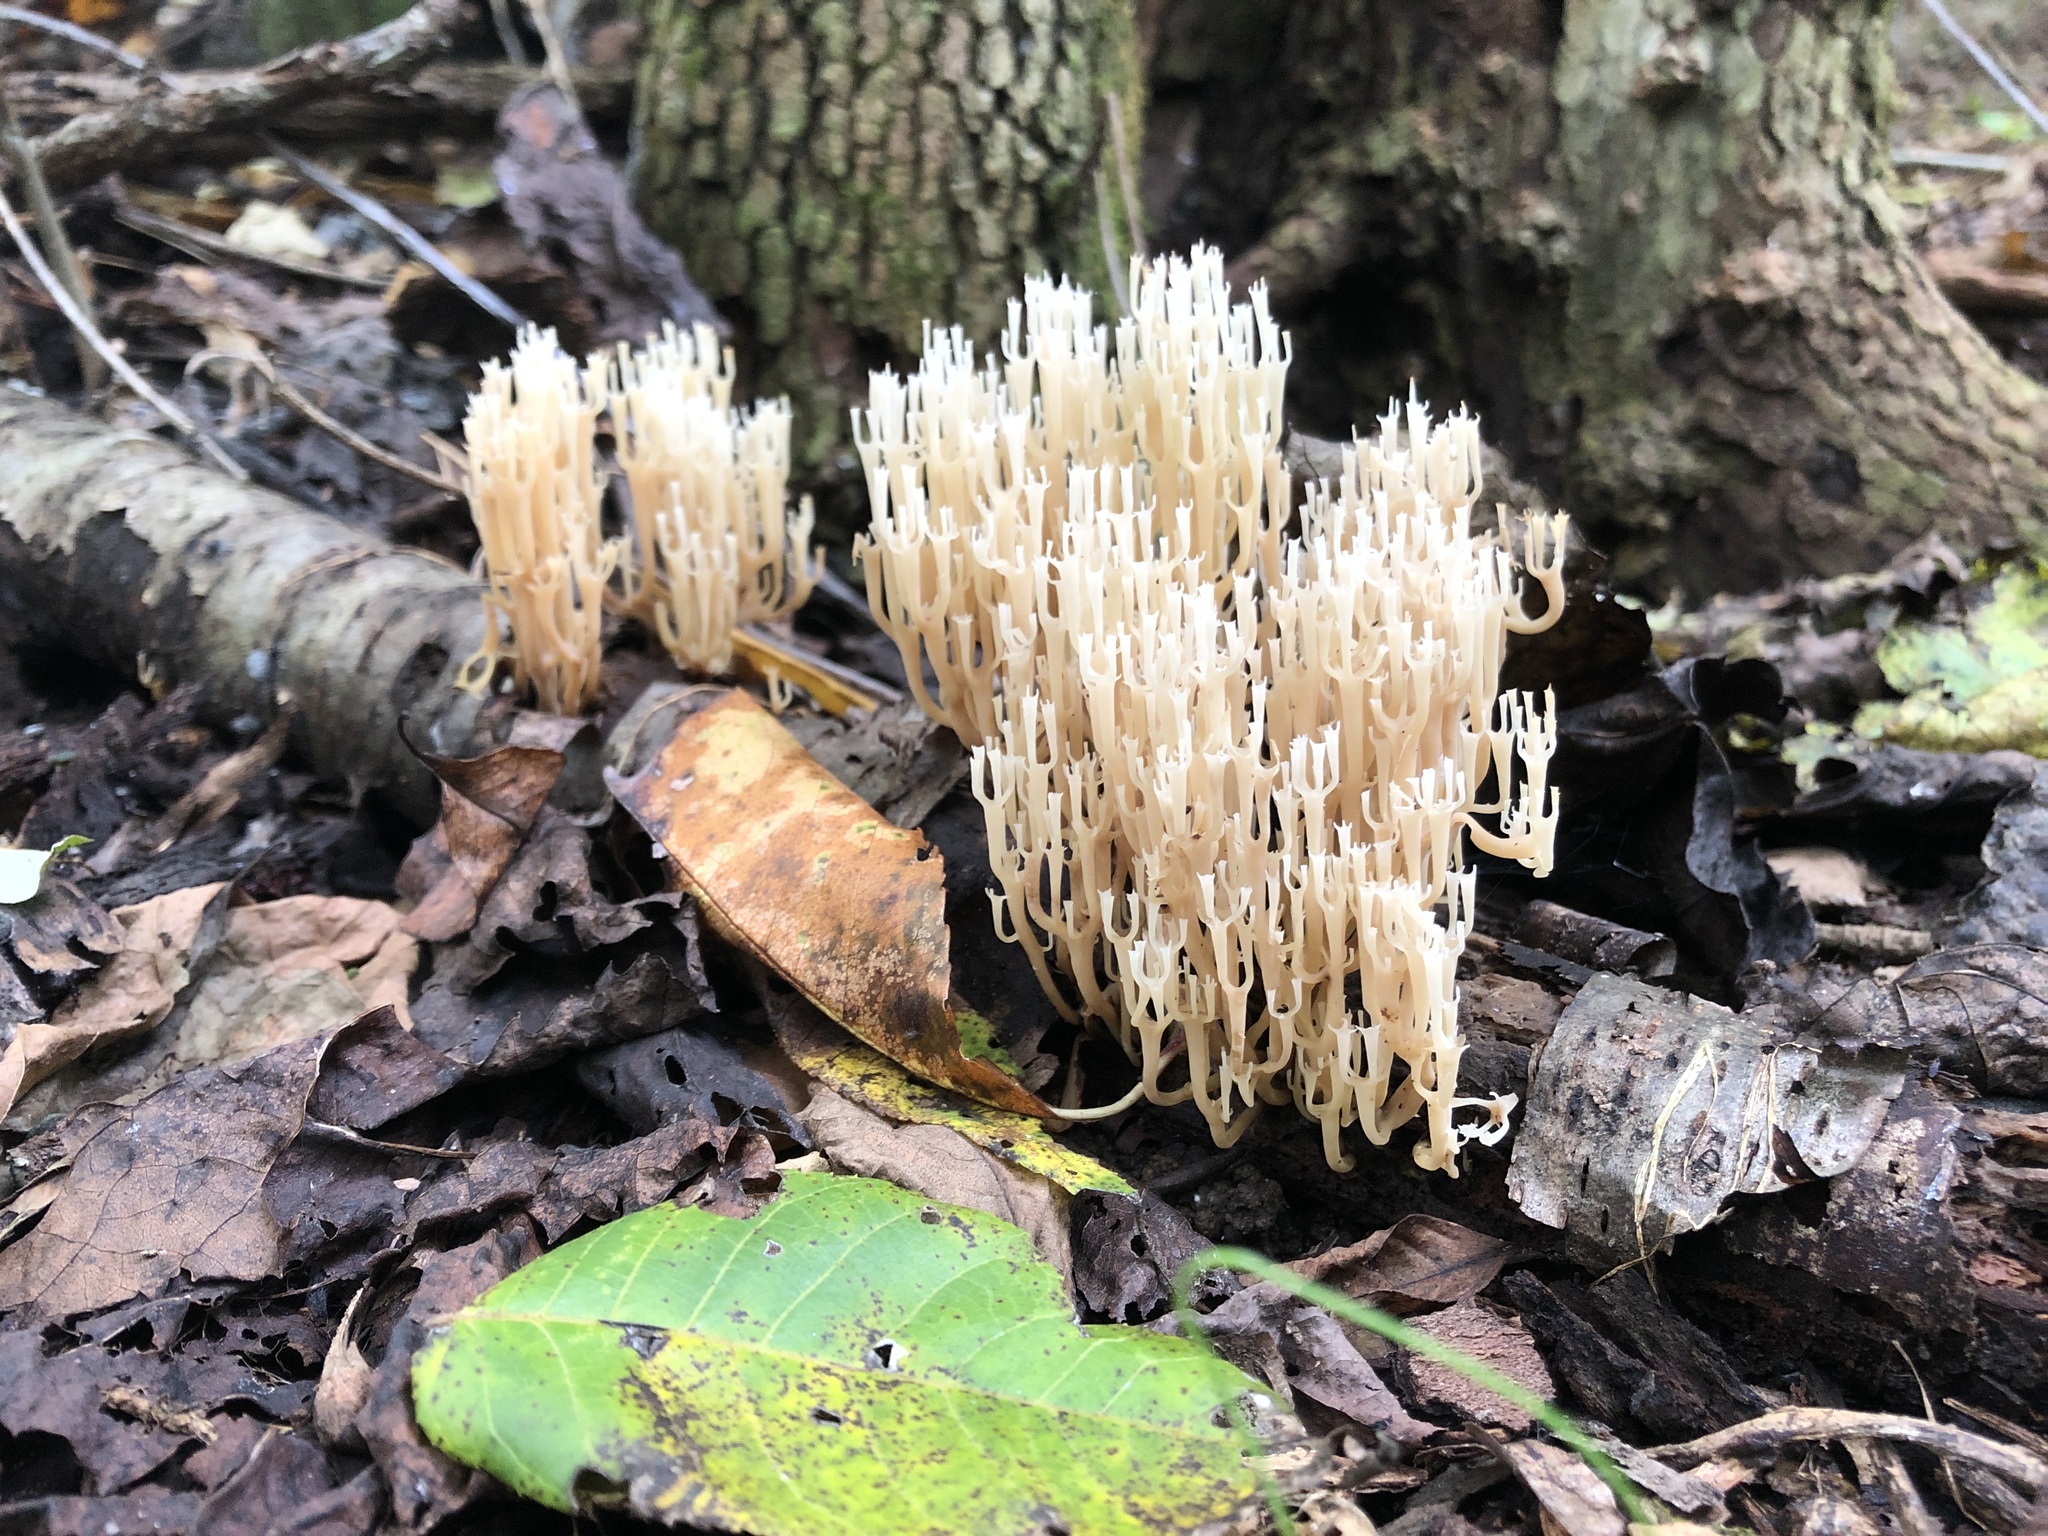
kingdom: Fungi
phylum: Basidiomycota
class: Agaricomycetes
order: Russulales
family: Auriscalpiaceae
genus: Artomyces
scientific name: Artomyces pyxidatus
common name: Crown-tipped coral fungus
